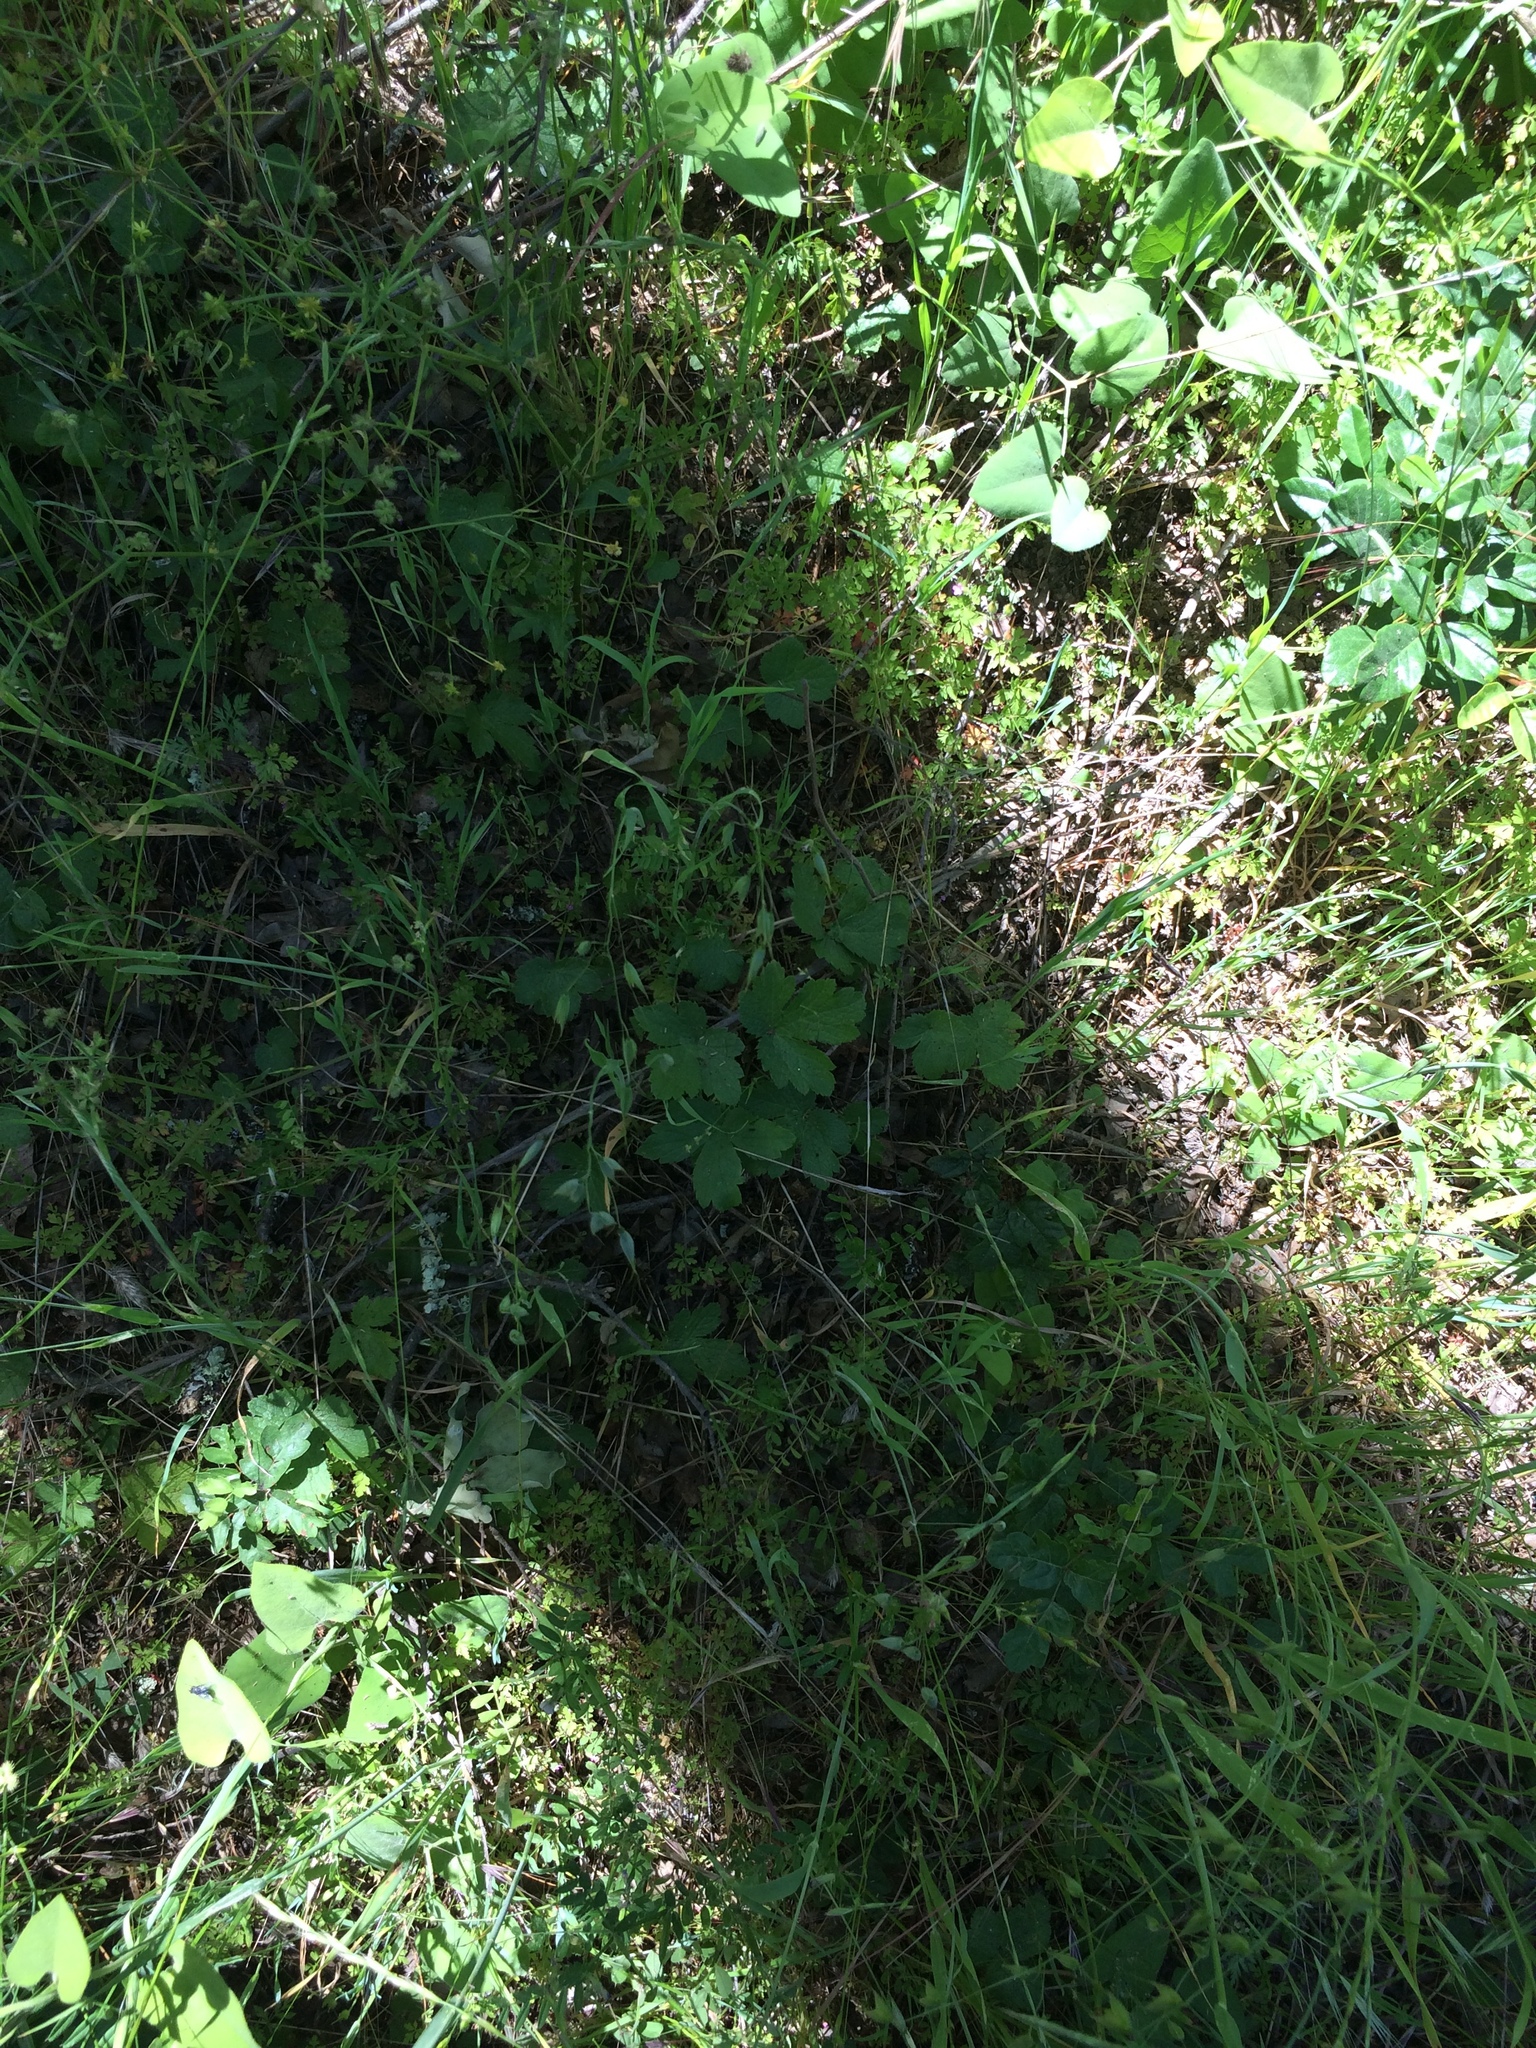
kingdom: Plantae
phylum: Tracheophyta
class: Magnoliopsida
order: Apiales
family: Apiaceae
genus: Sanicula
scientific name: Sanicula crassicaulis
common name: Western snakeroot
